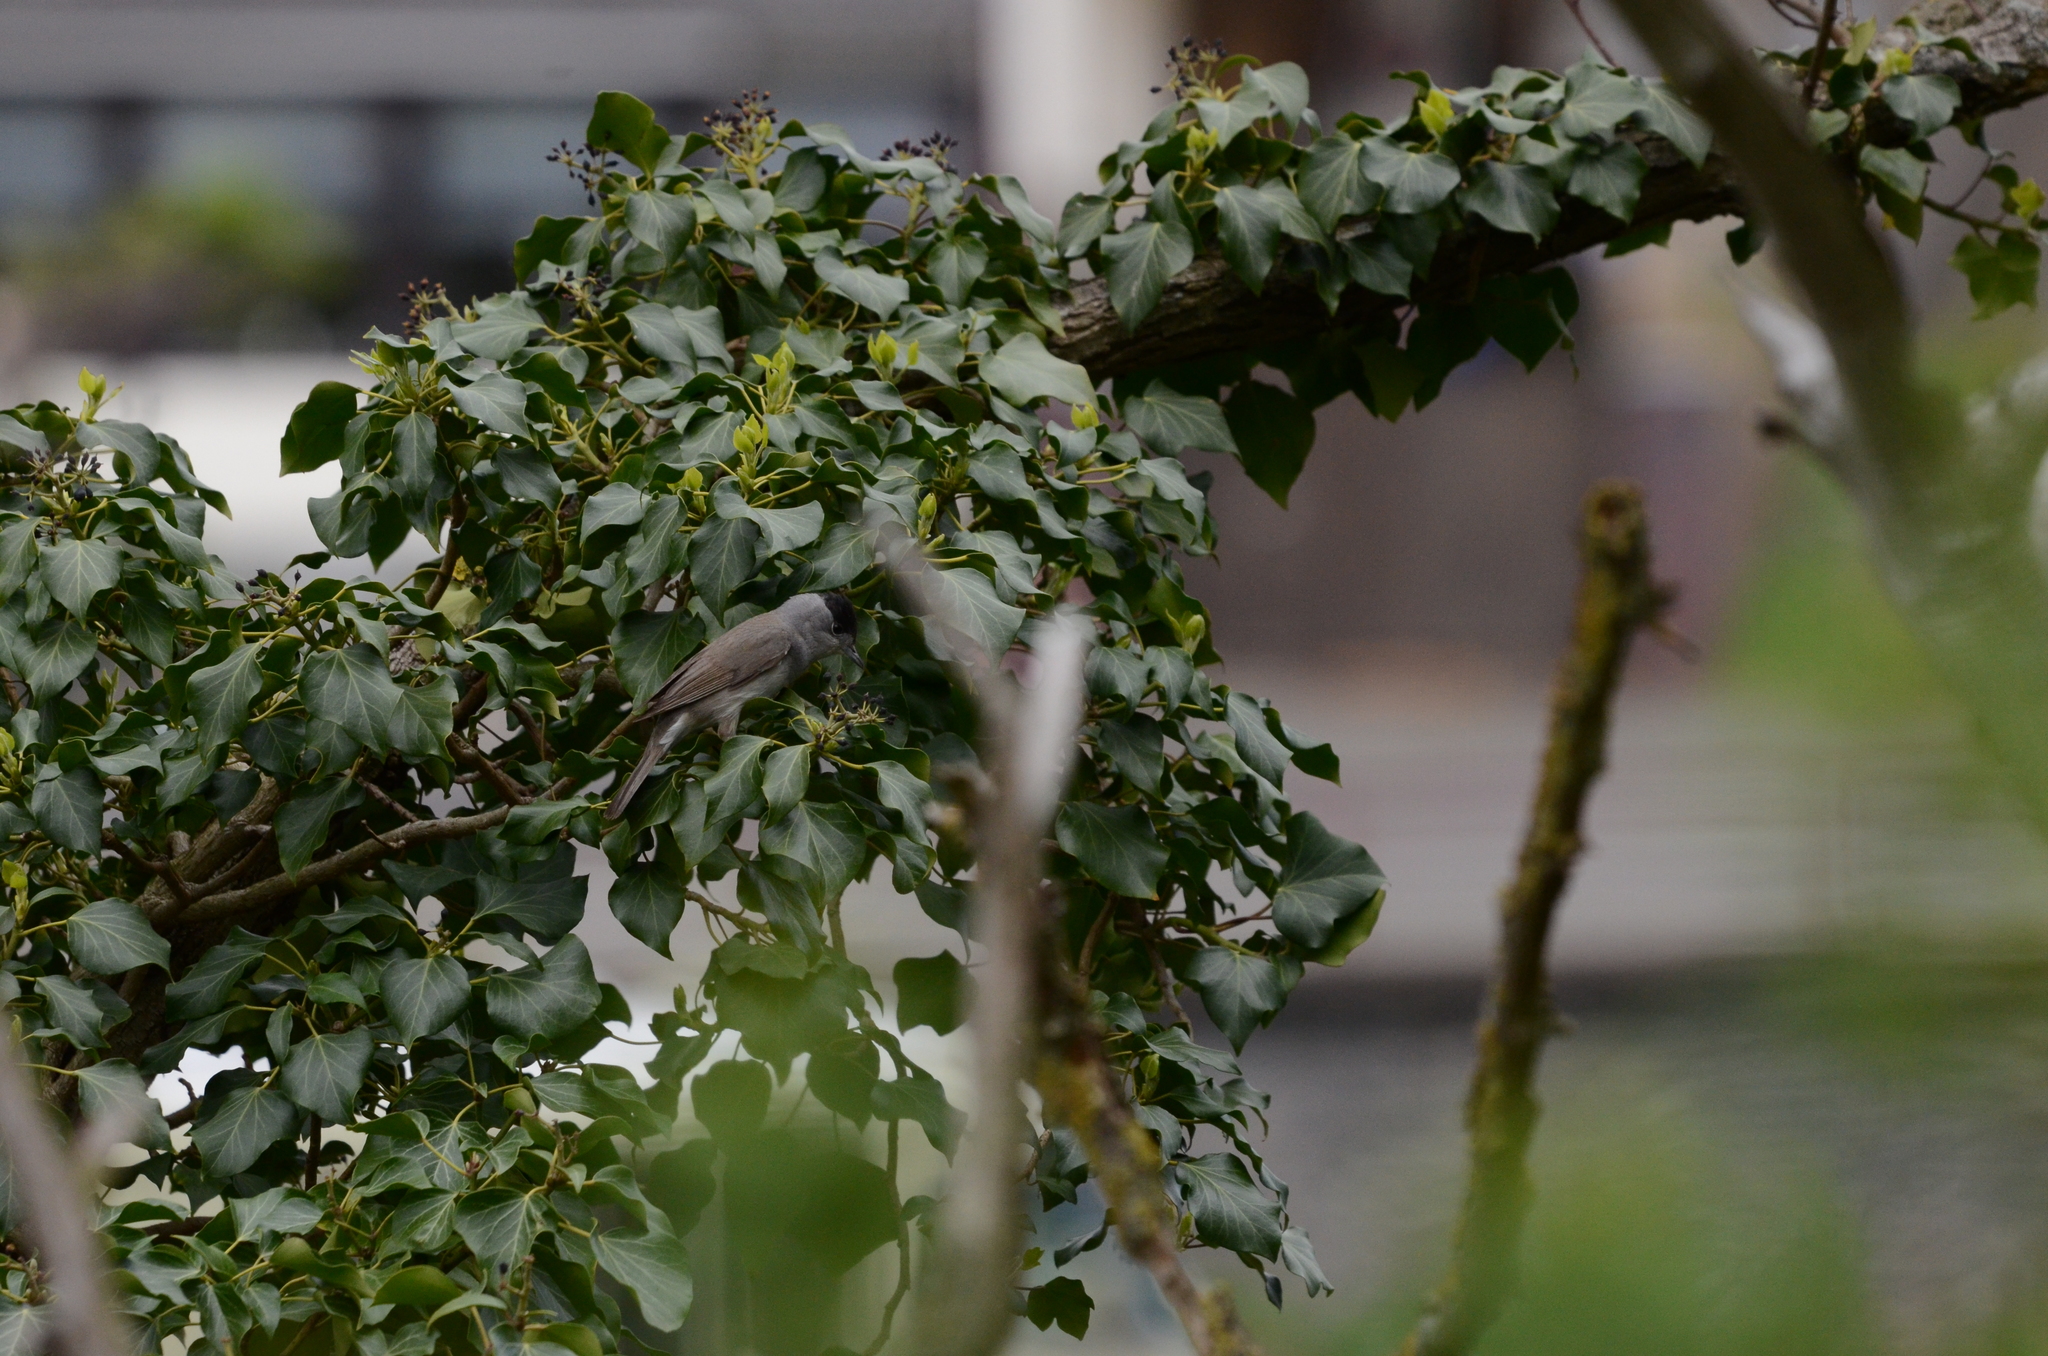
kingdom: Animalia
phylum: Chordata
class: Aves
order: Passeriformes
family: Sylviidae
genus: Sylvia
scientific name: Sylvia atricapilla
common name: Eurasian blackcap
